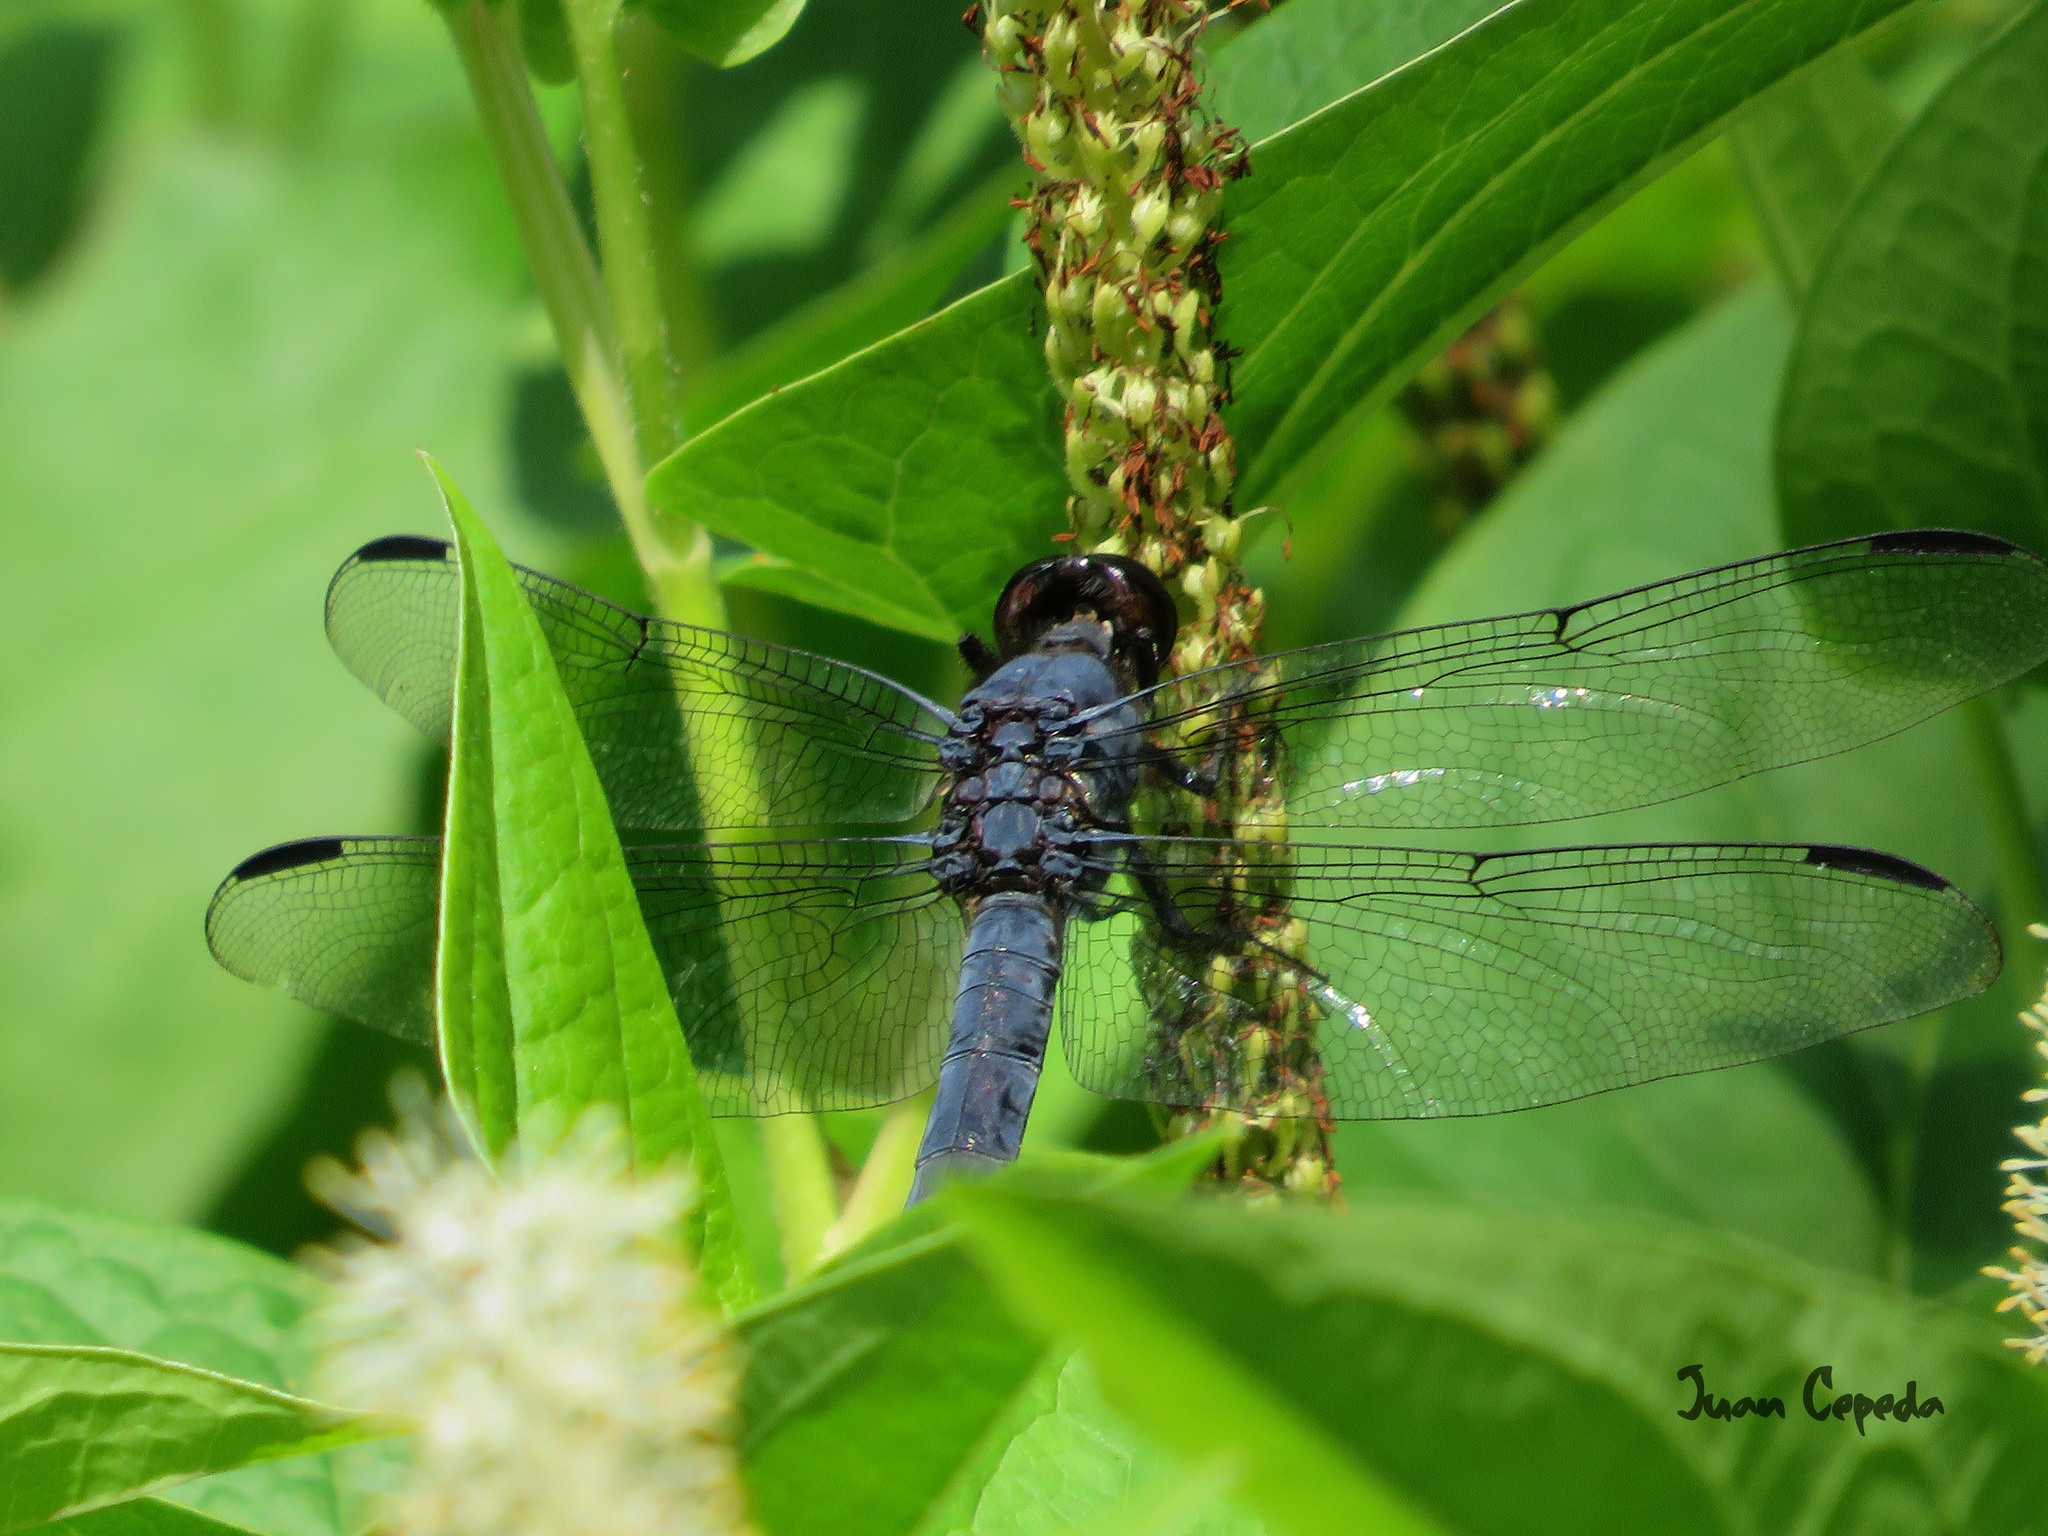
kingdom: Animalia
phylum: Arthropoda
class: Insecta
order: Odonata
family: Libellulidae
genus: Libellula
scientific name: Libellula incesta
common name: Slaty skimmer
